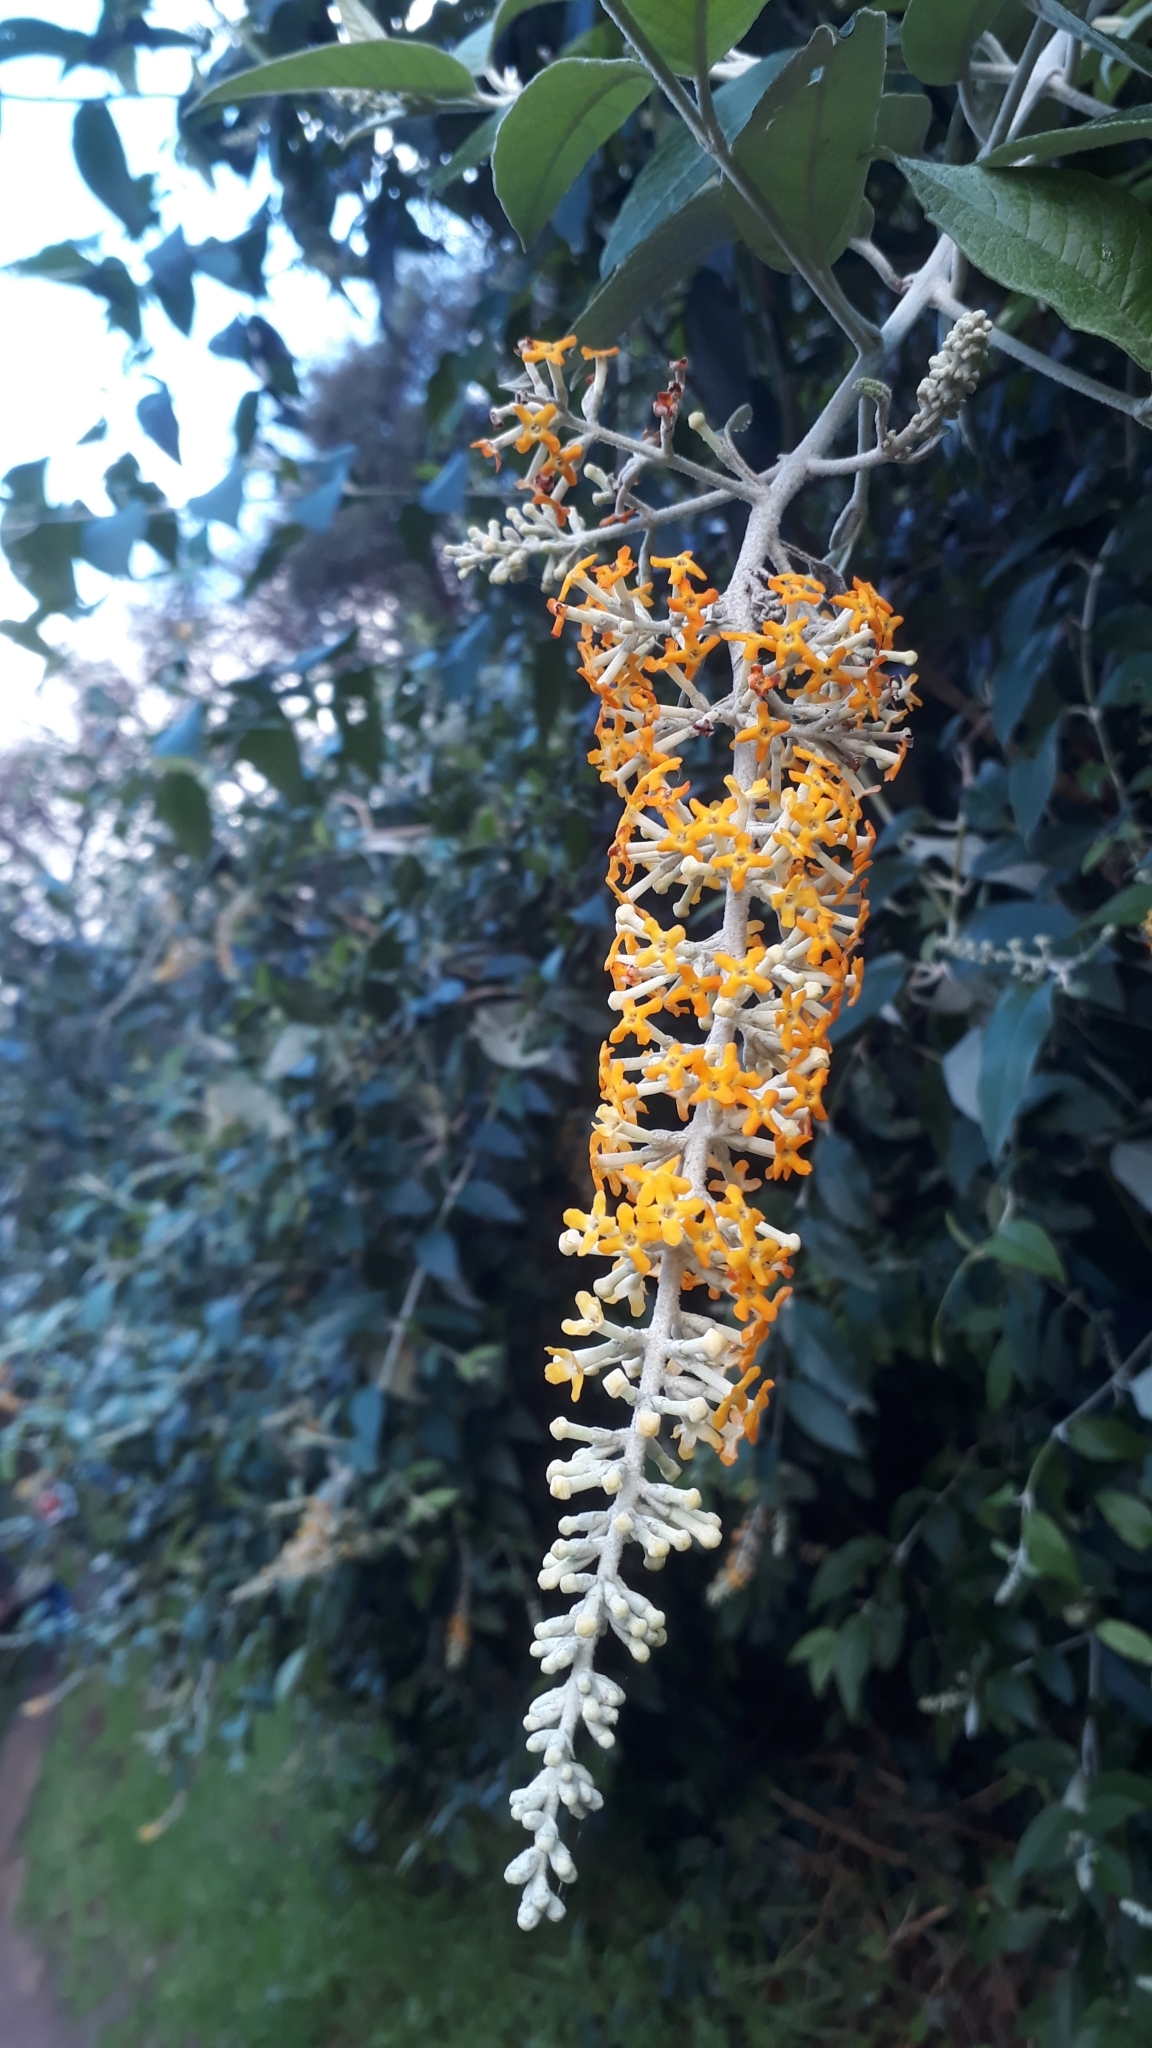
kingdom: Plantae
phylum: Tracheophyta
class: Magnoliopsida
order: Lamiales
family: Scrophulariaceae
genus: Buddleja
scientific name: Buddleja madagascariensis
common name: Smokebush
